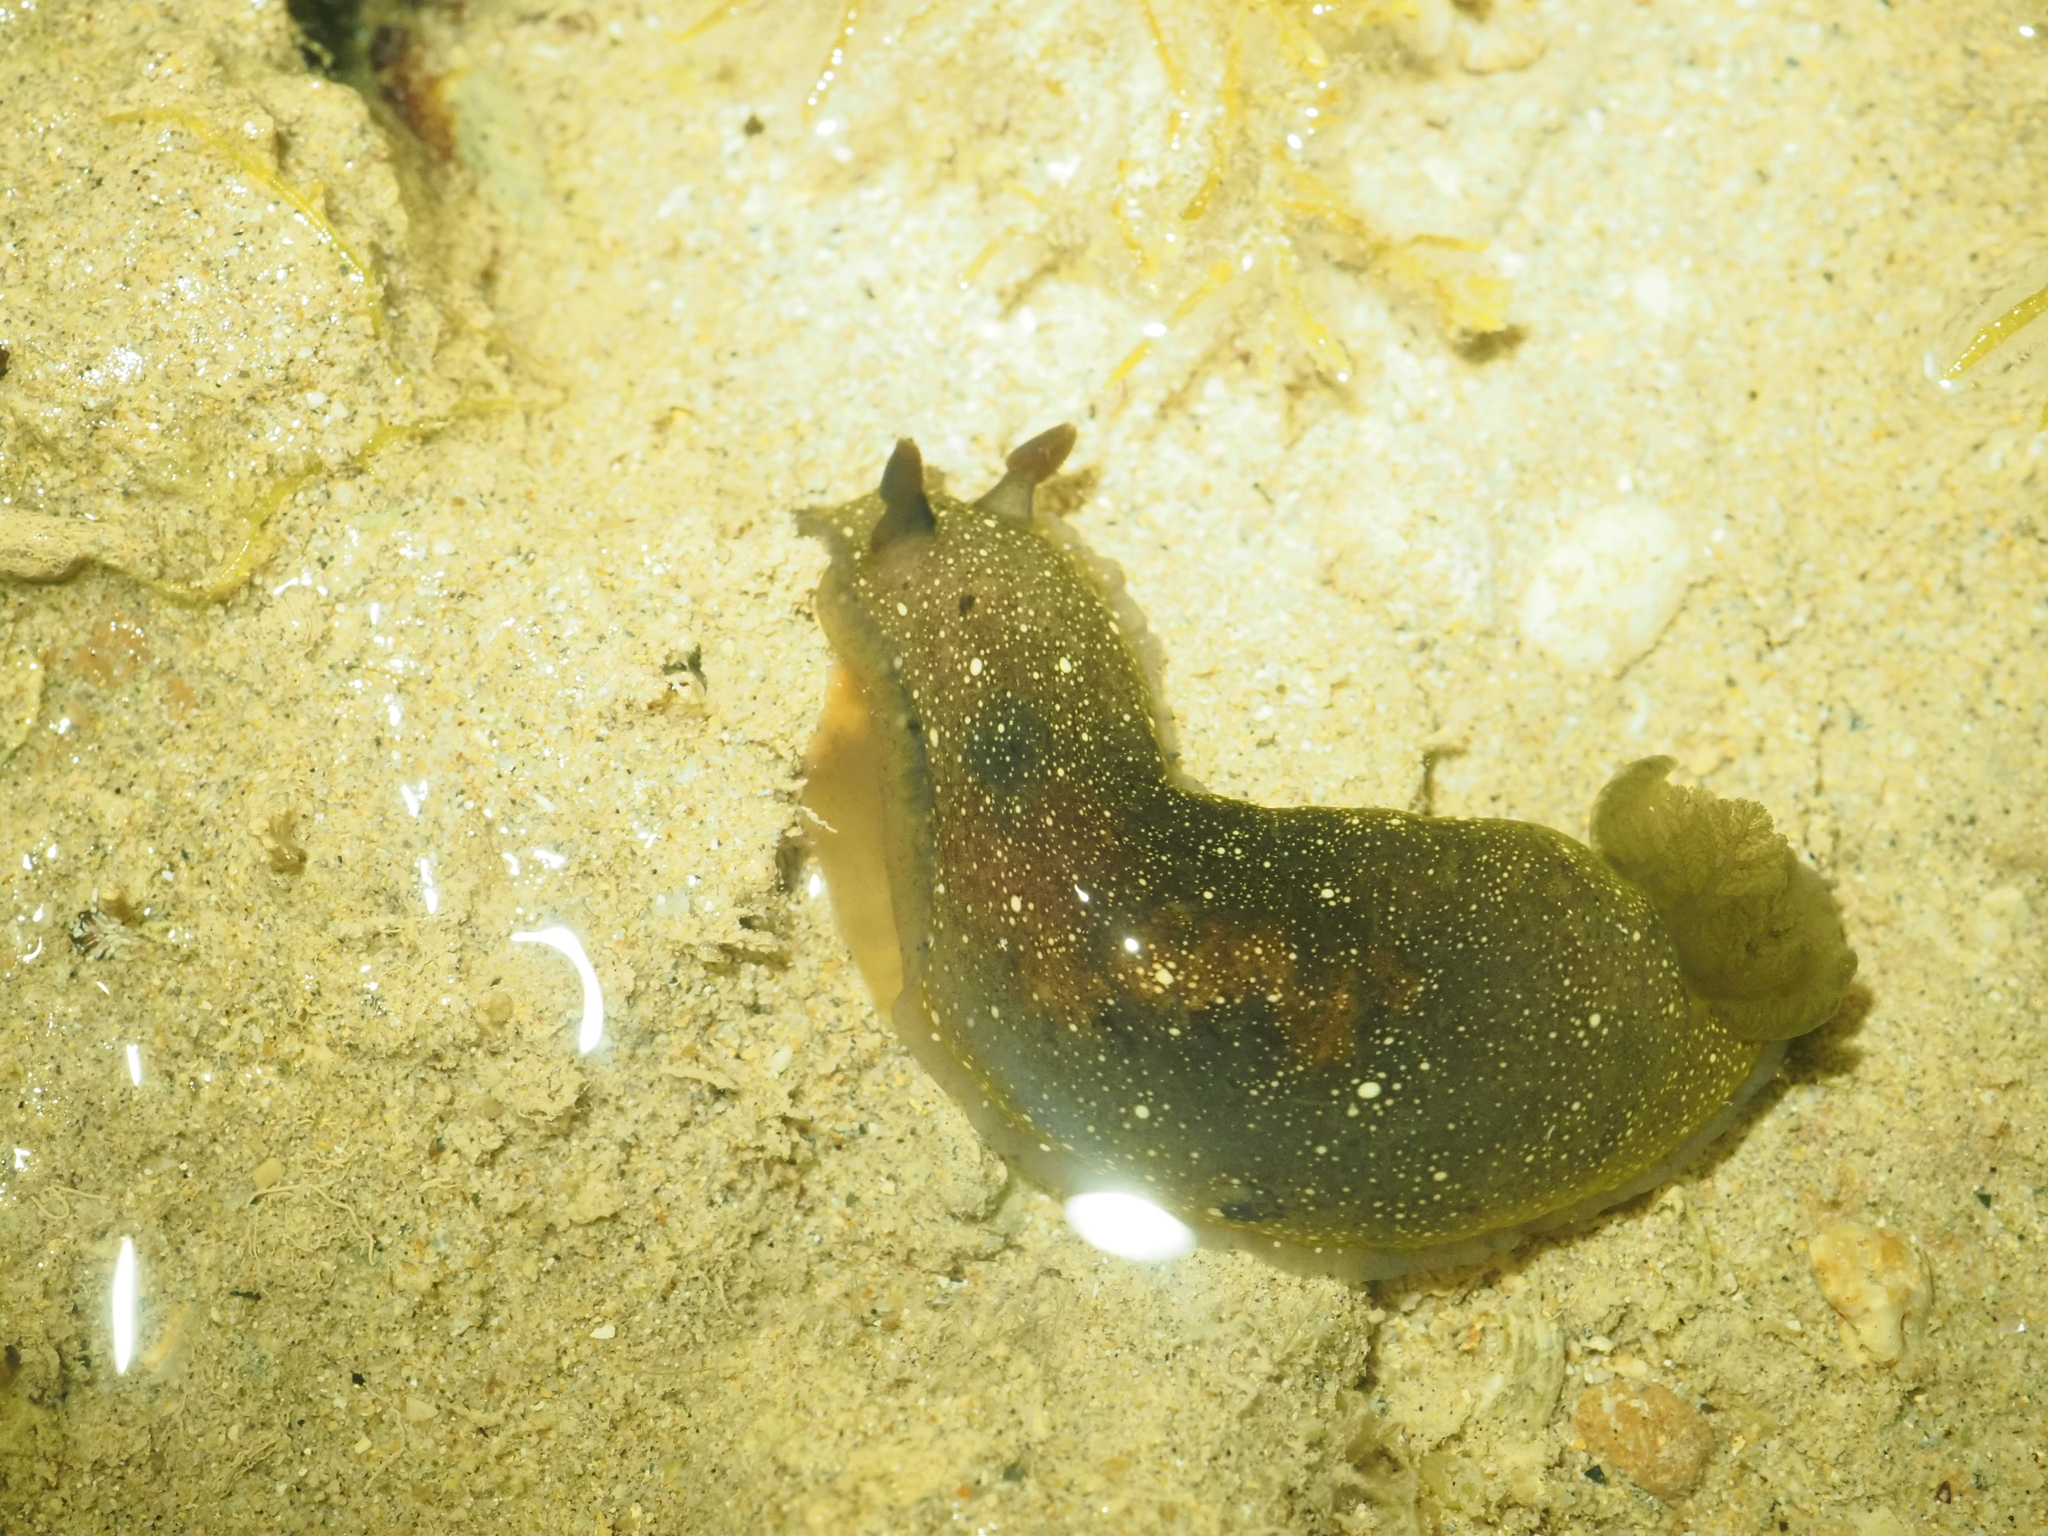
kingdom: Animalia
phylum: Mollusca
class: Gastropoda
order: Nudibranchia
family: Dendrodorididae
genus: Dendrodoris
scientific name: Dendrodoris nigra
